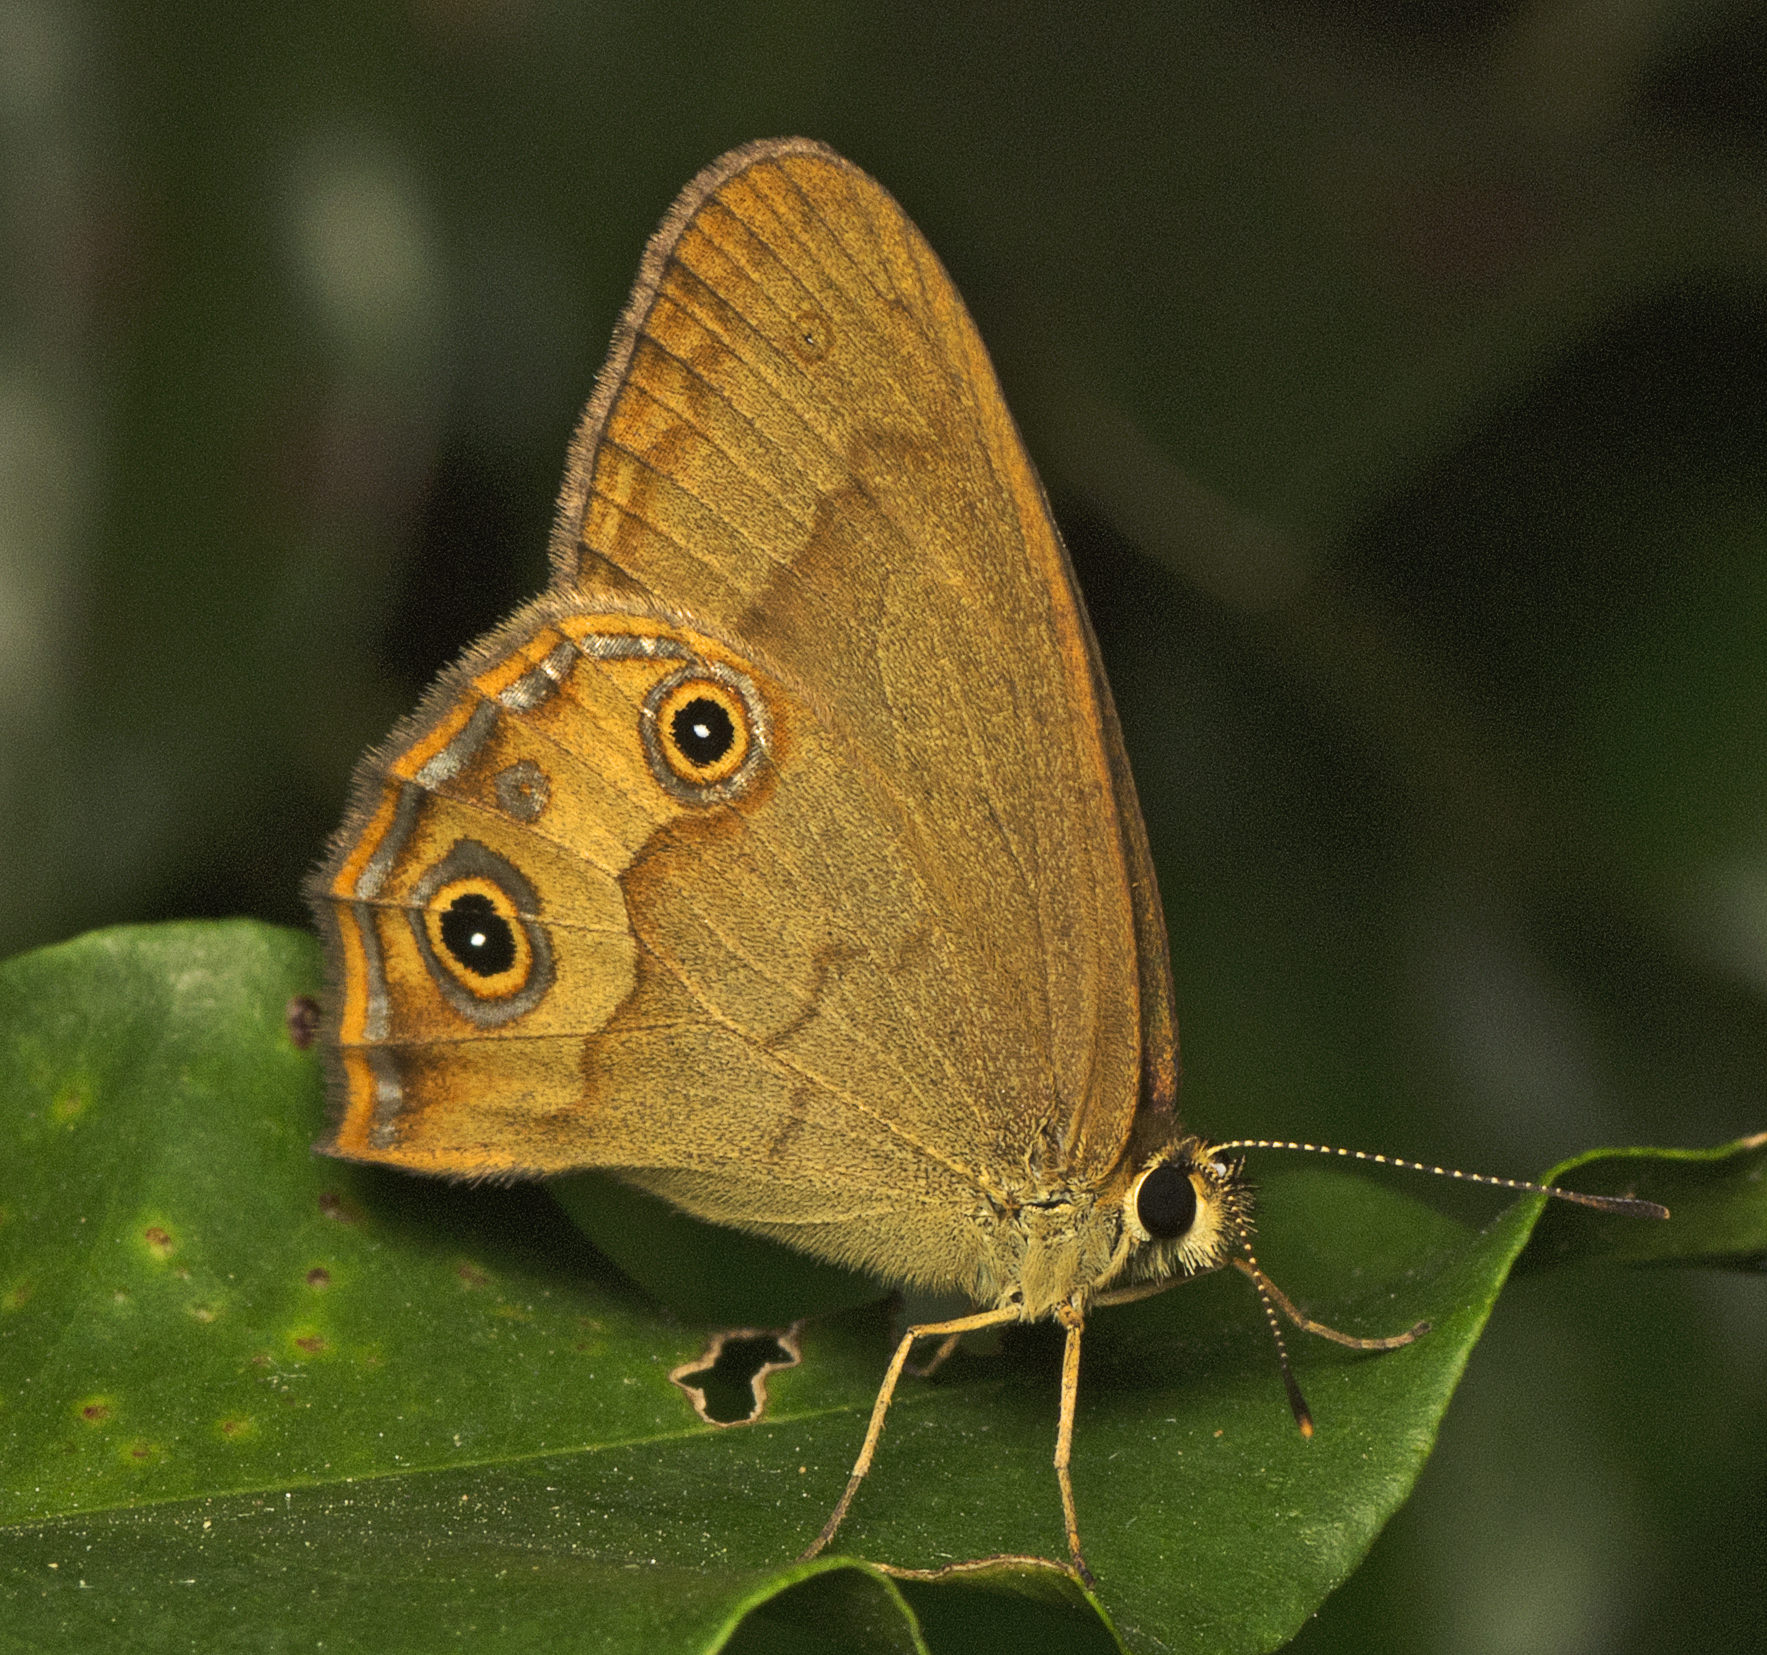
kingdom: Animalia
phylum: Arthropoda
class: Insecta
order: Lepidoptera
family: Nymphalidae
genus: Hypocysta
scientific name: Hypocysta metirius
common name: Brown ringlet
